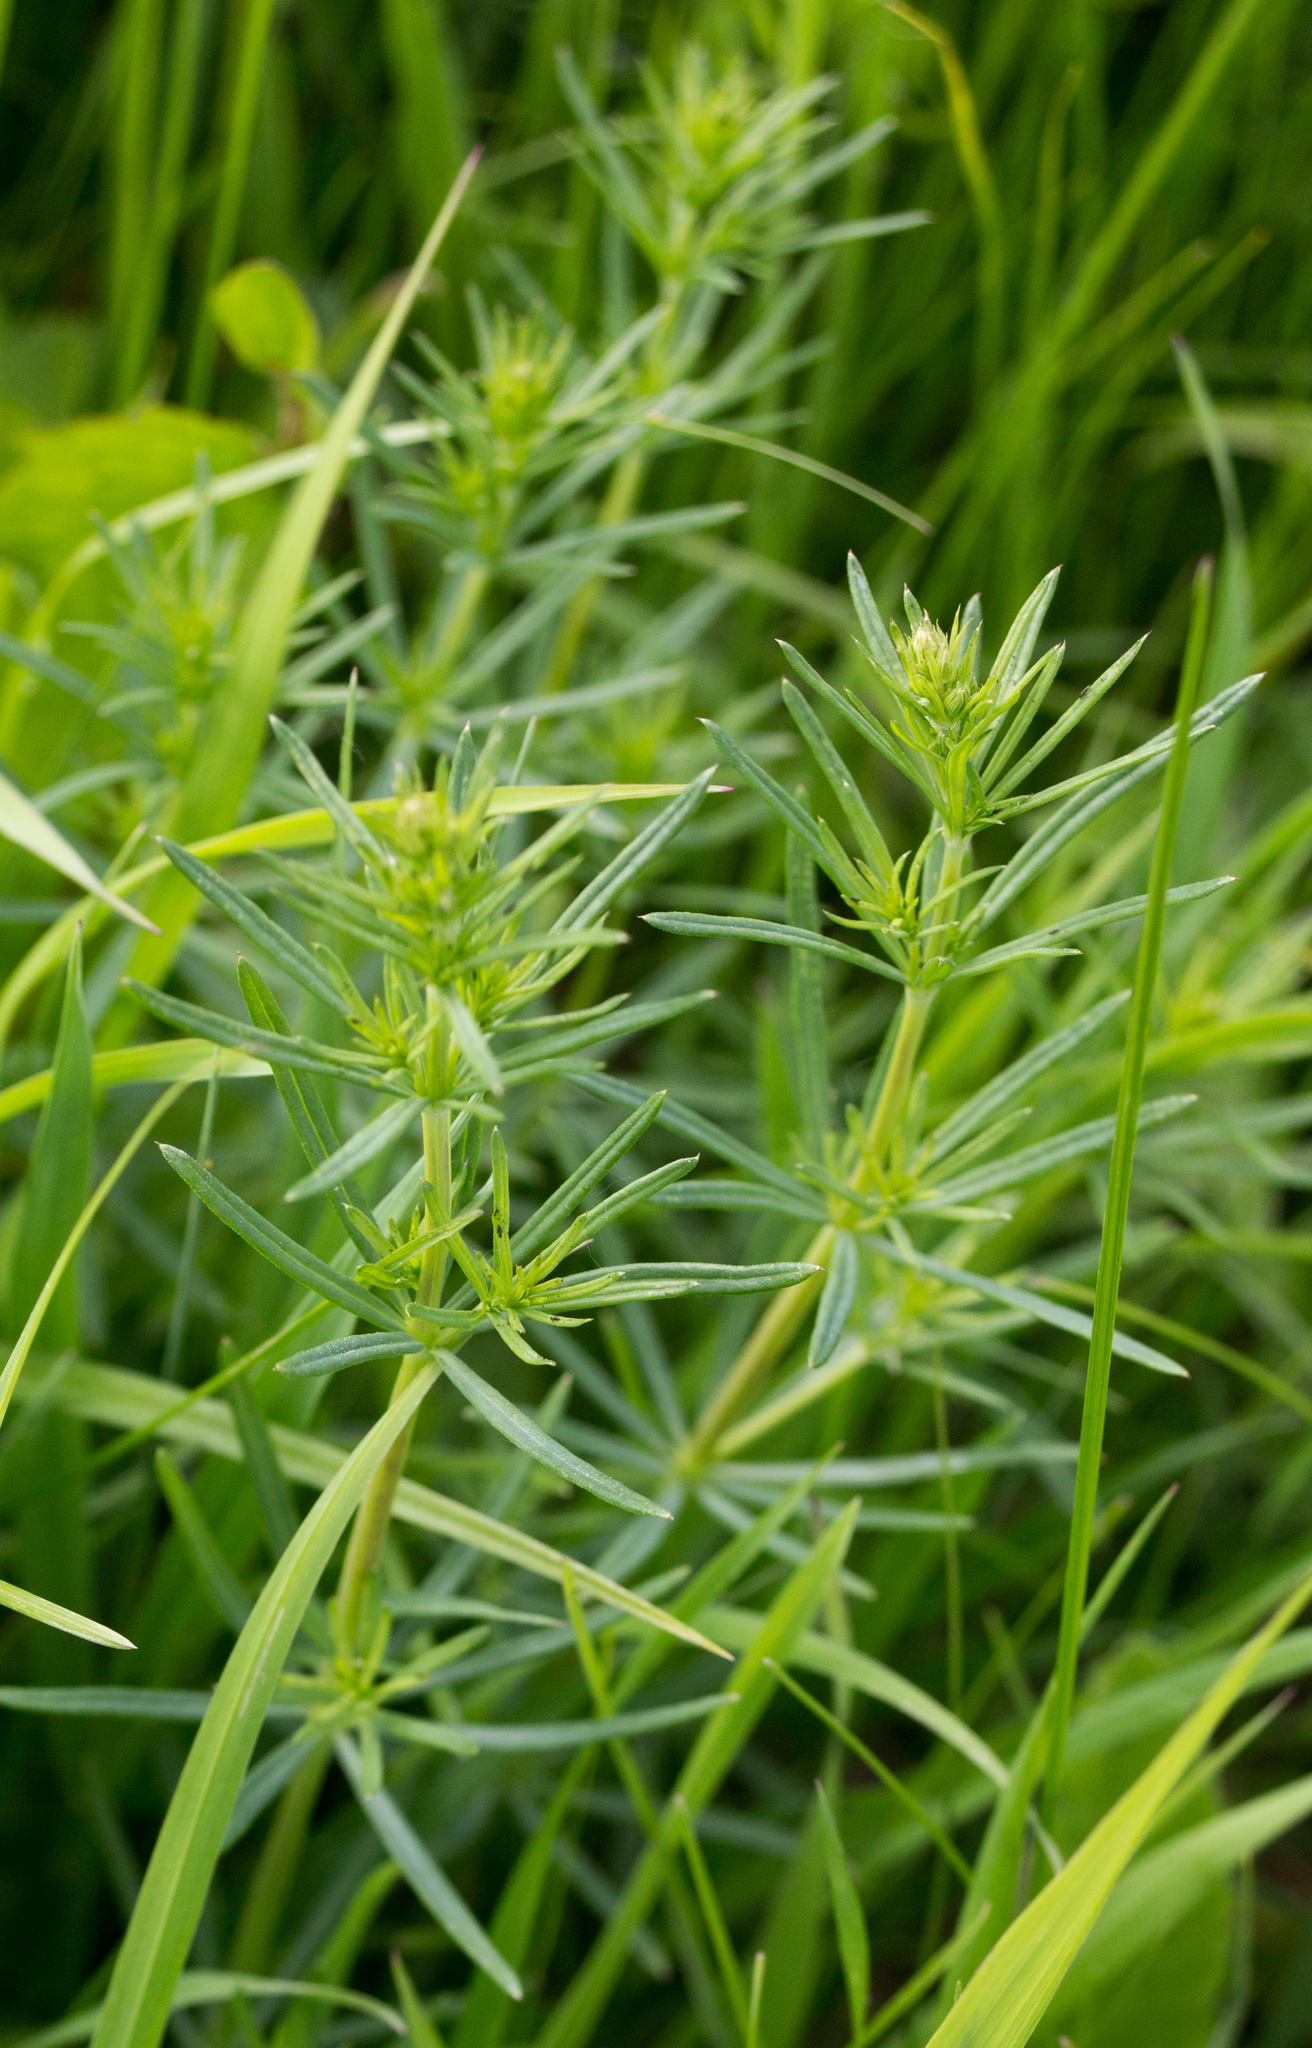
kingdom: Plantae
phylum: Tracheophyta
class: Magnoliopsida
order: Gentianales
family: Rubiaceae
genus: Galium
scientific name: Galium verum
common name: Lady's bedstraw
